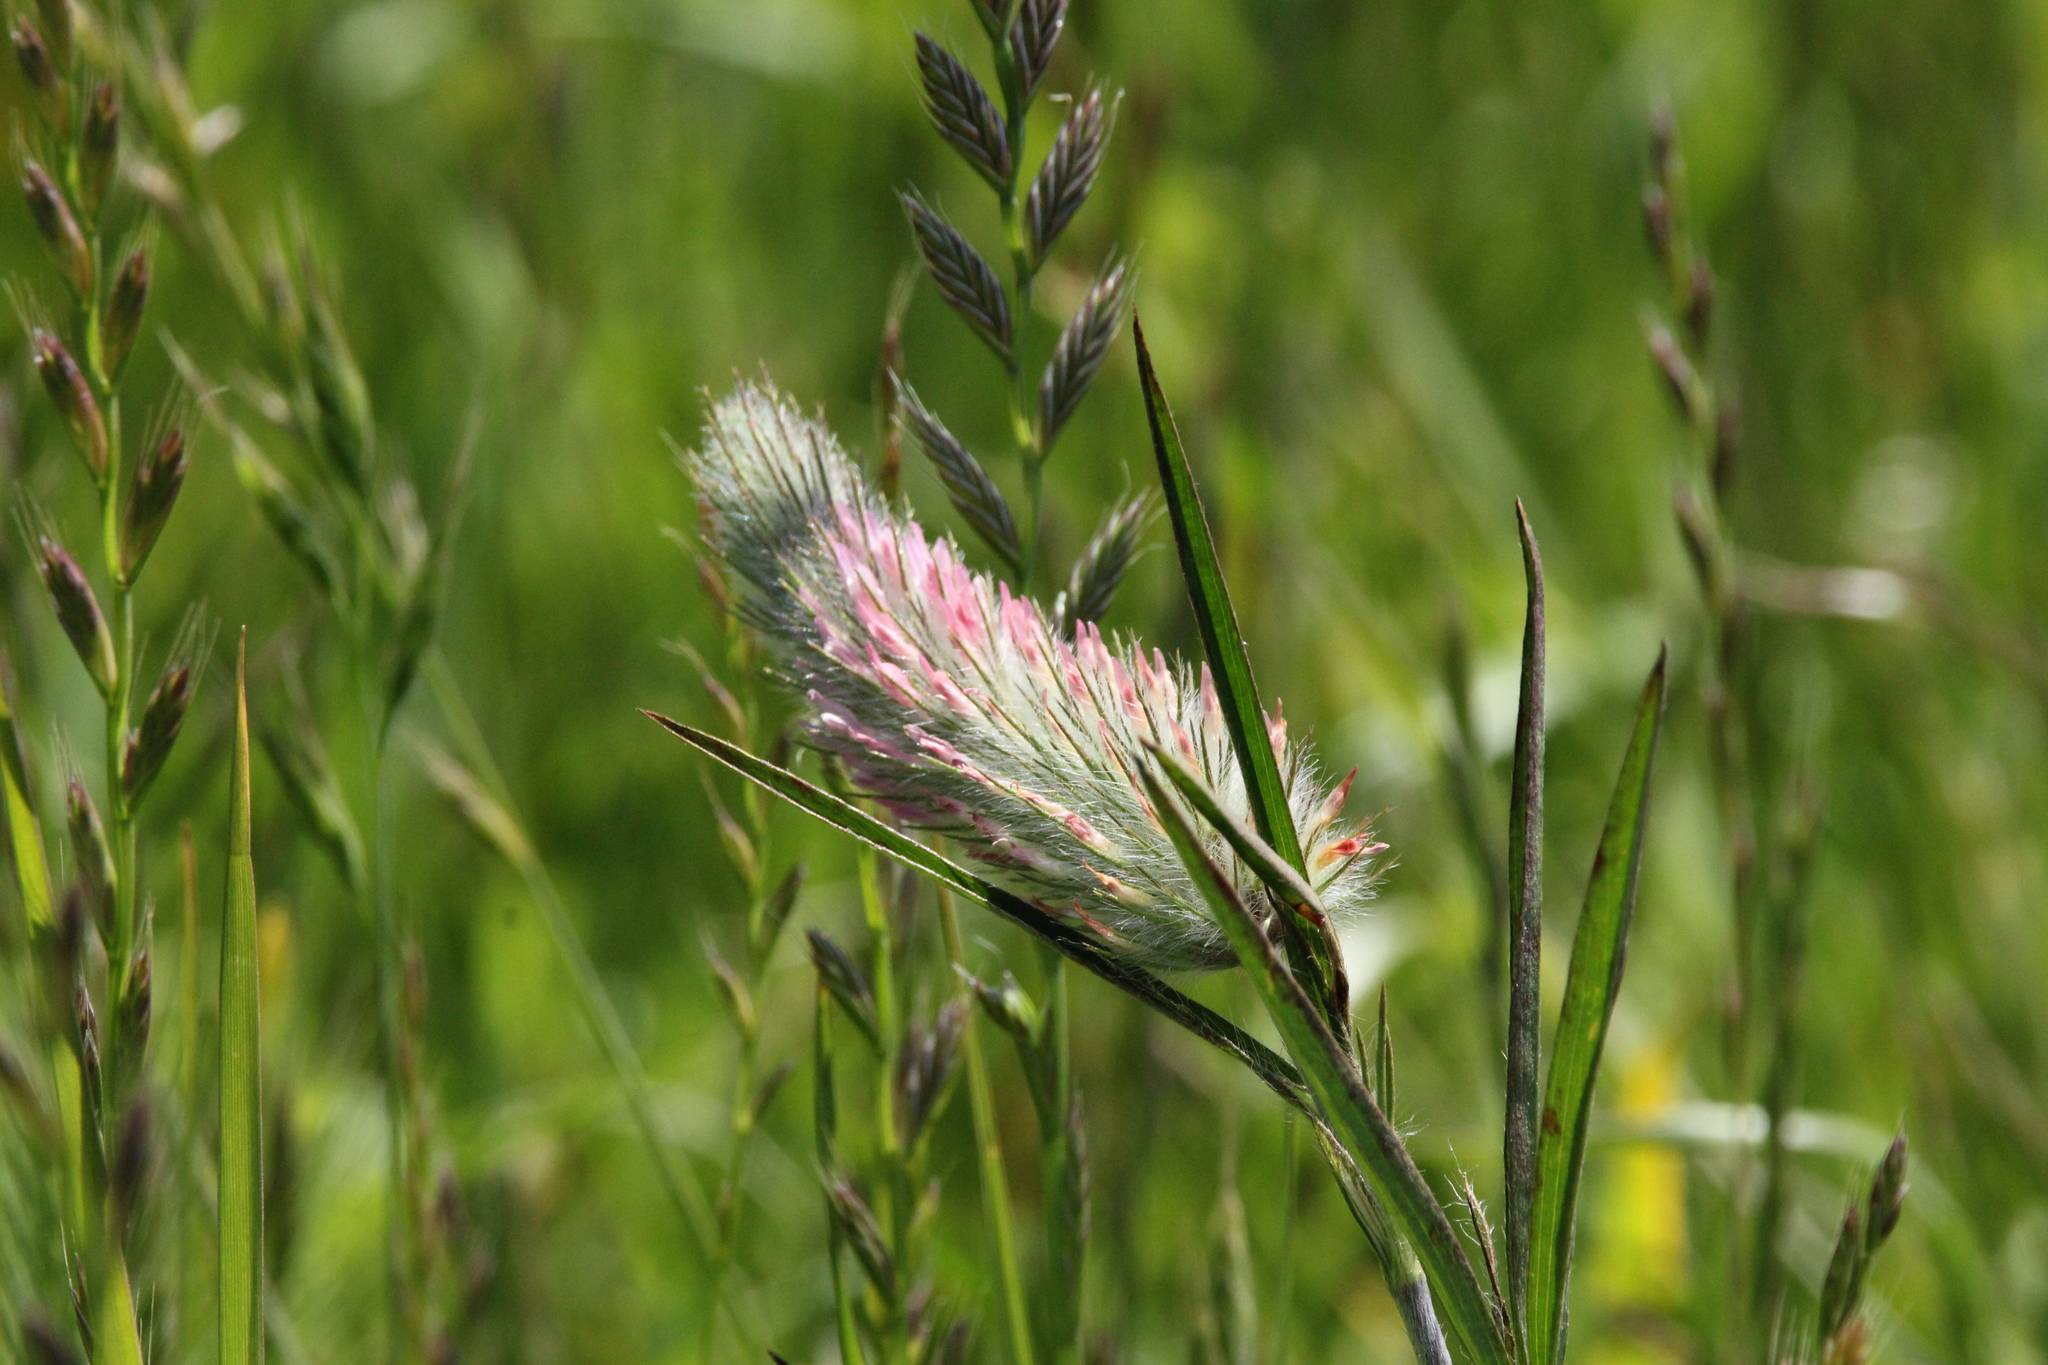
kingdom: Plantae
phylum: Tracheophyta
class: Magnoliopsida
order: Fabales
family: Fabaceae
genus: Trifolium
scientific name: Trifolium angustifolium
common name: Narrow clover
